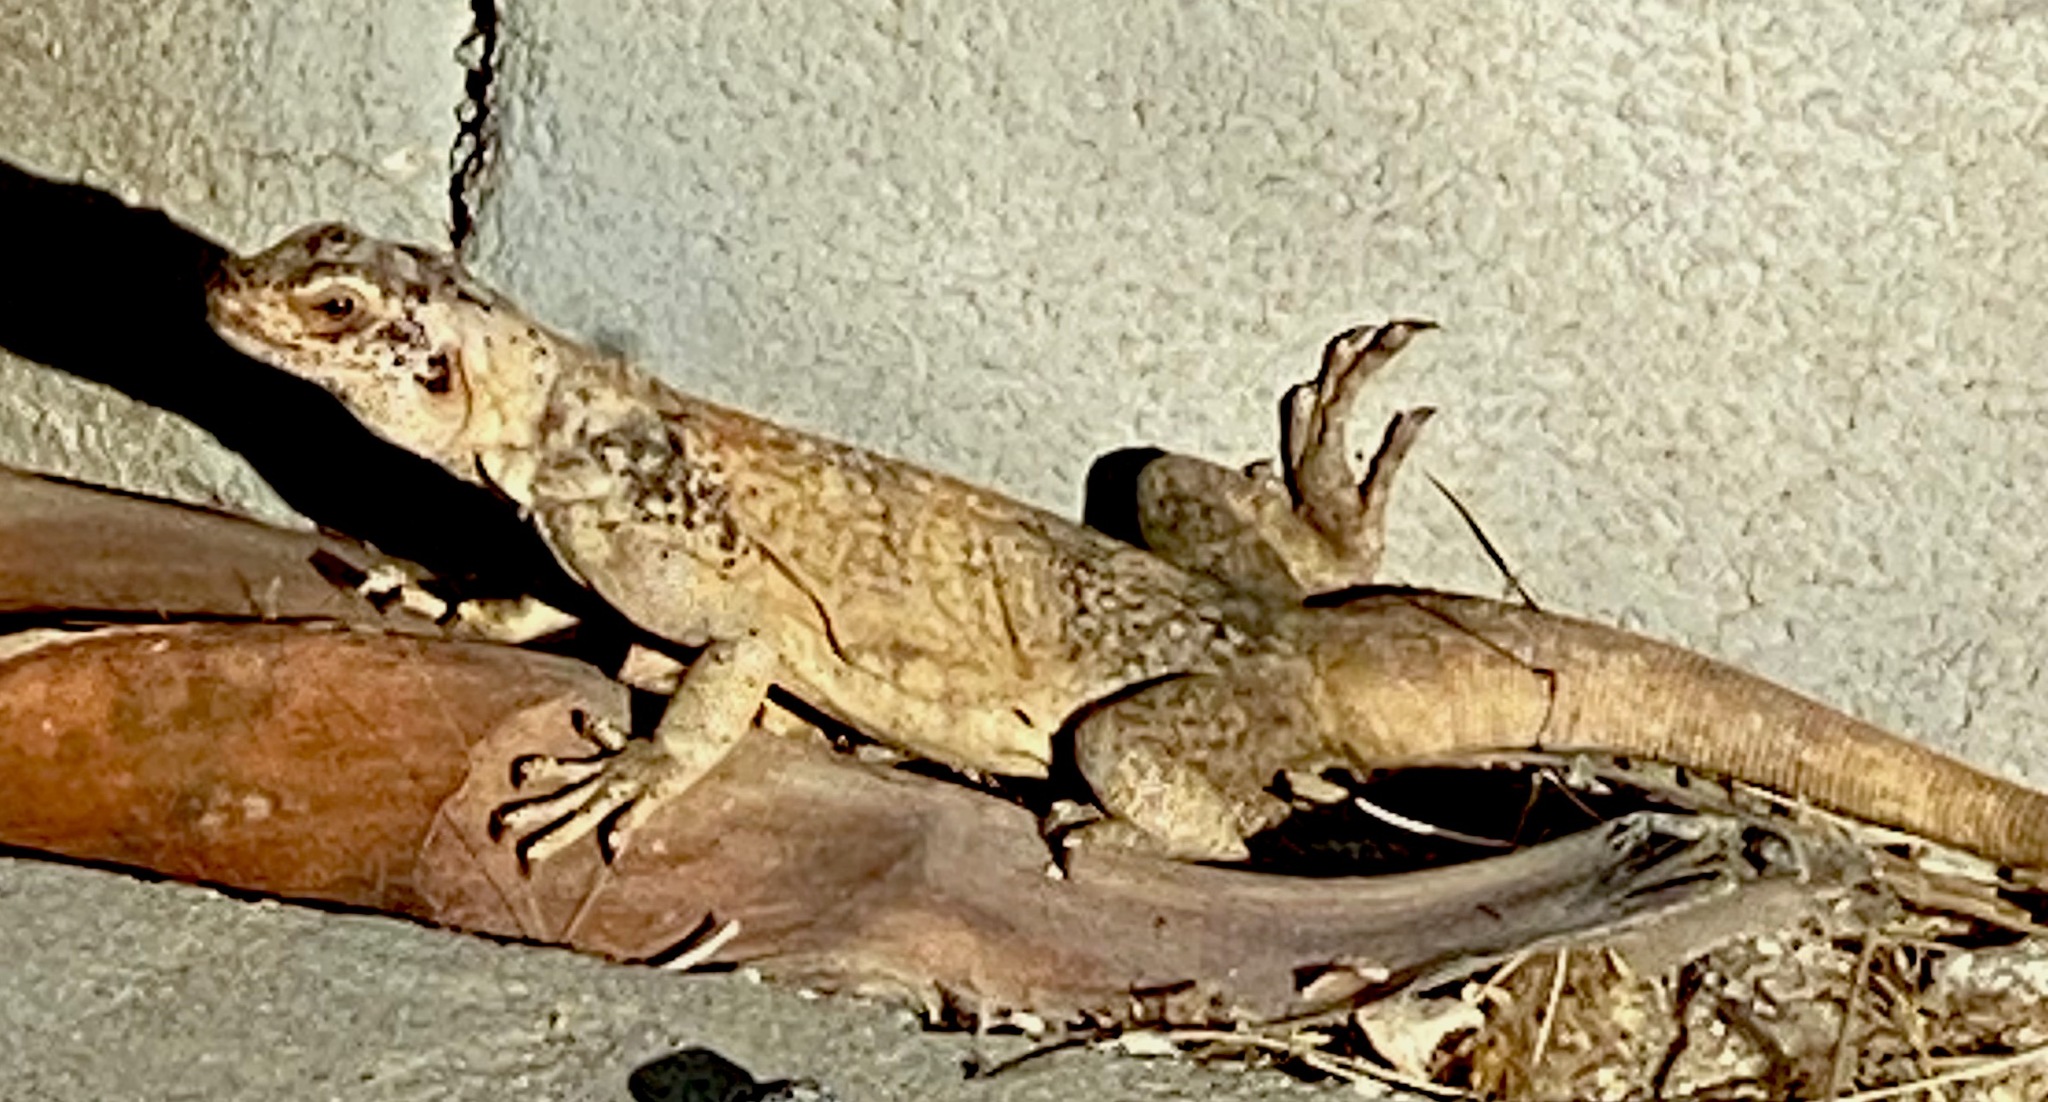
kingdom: Animalia
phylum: Chordata
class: Squamata
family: Iguanidae
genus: Sauromalus
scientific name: Sauromalus ater
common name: Northern chuckwalla
